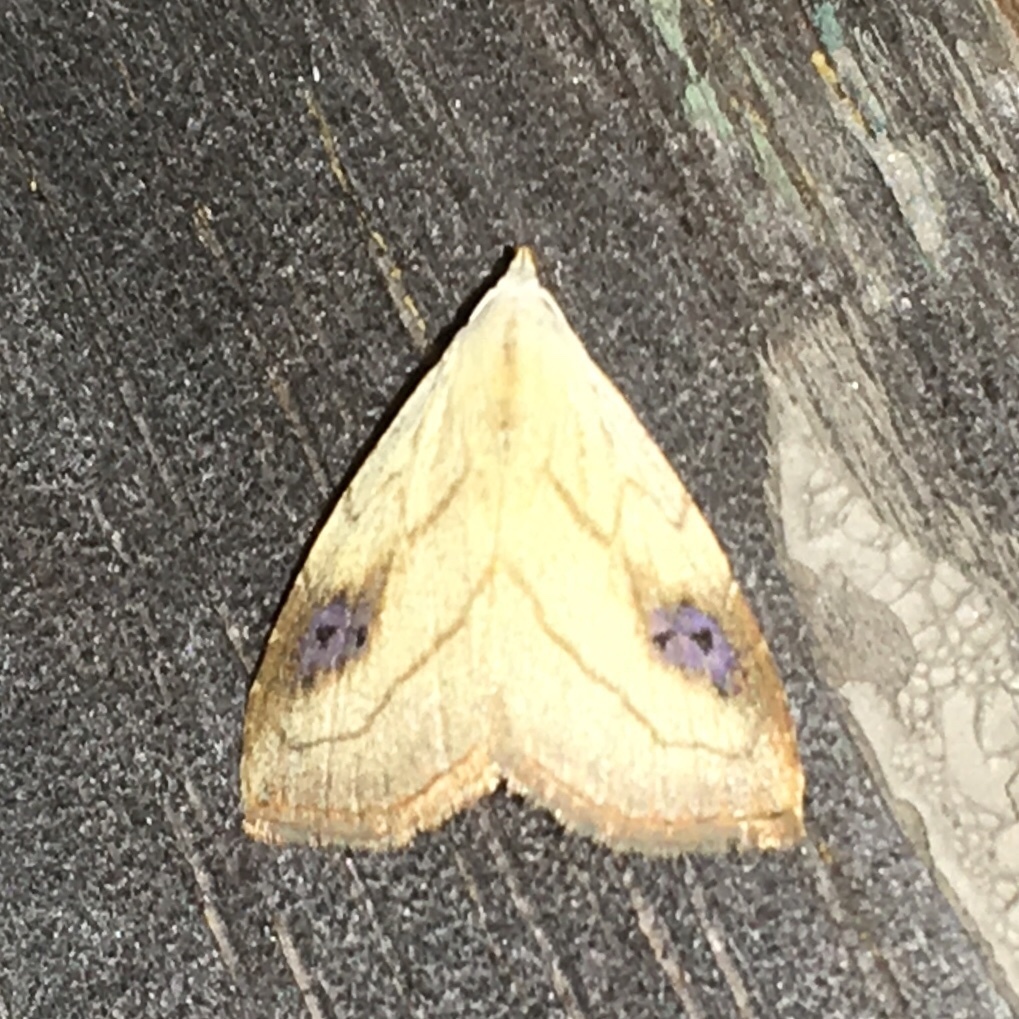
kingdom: Animalia
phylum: Arthropoda
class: Insecta
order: Lepidoptera
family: Erebidae
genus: Rivula
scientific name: Rivula propinqualis
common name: Spotted grass moth
